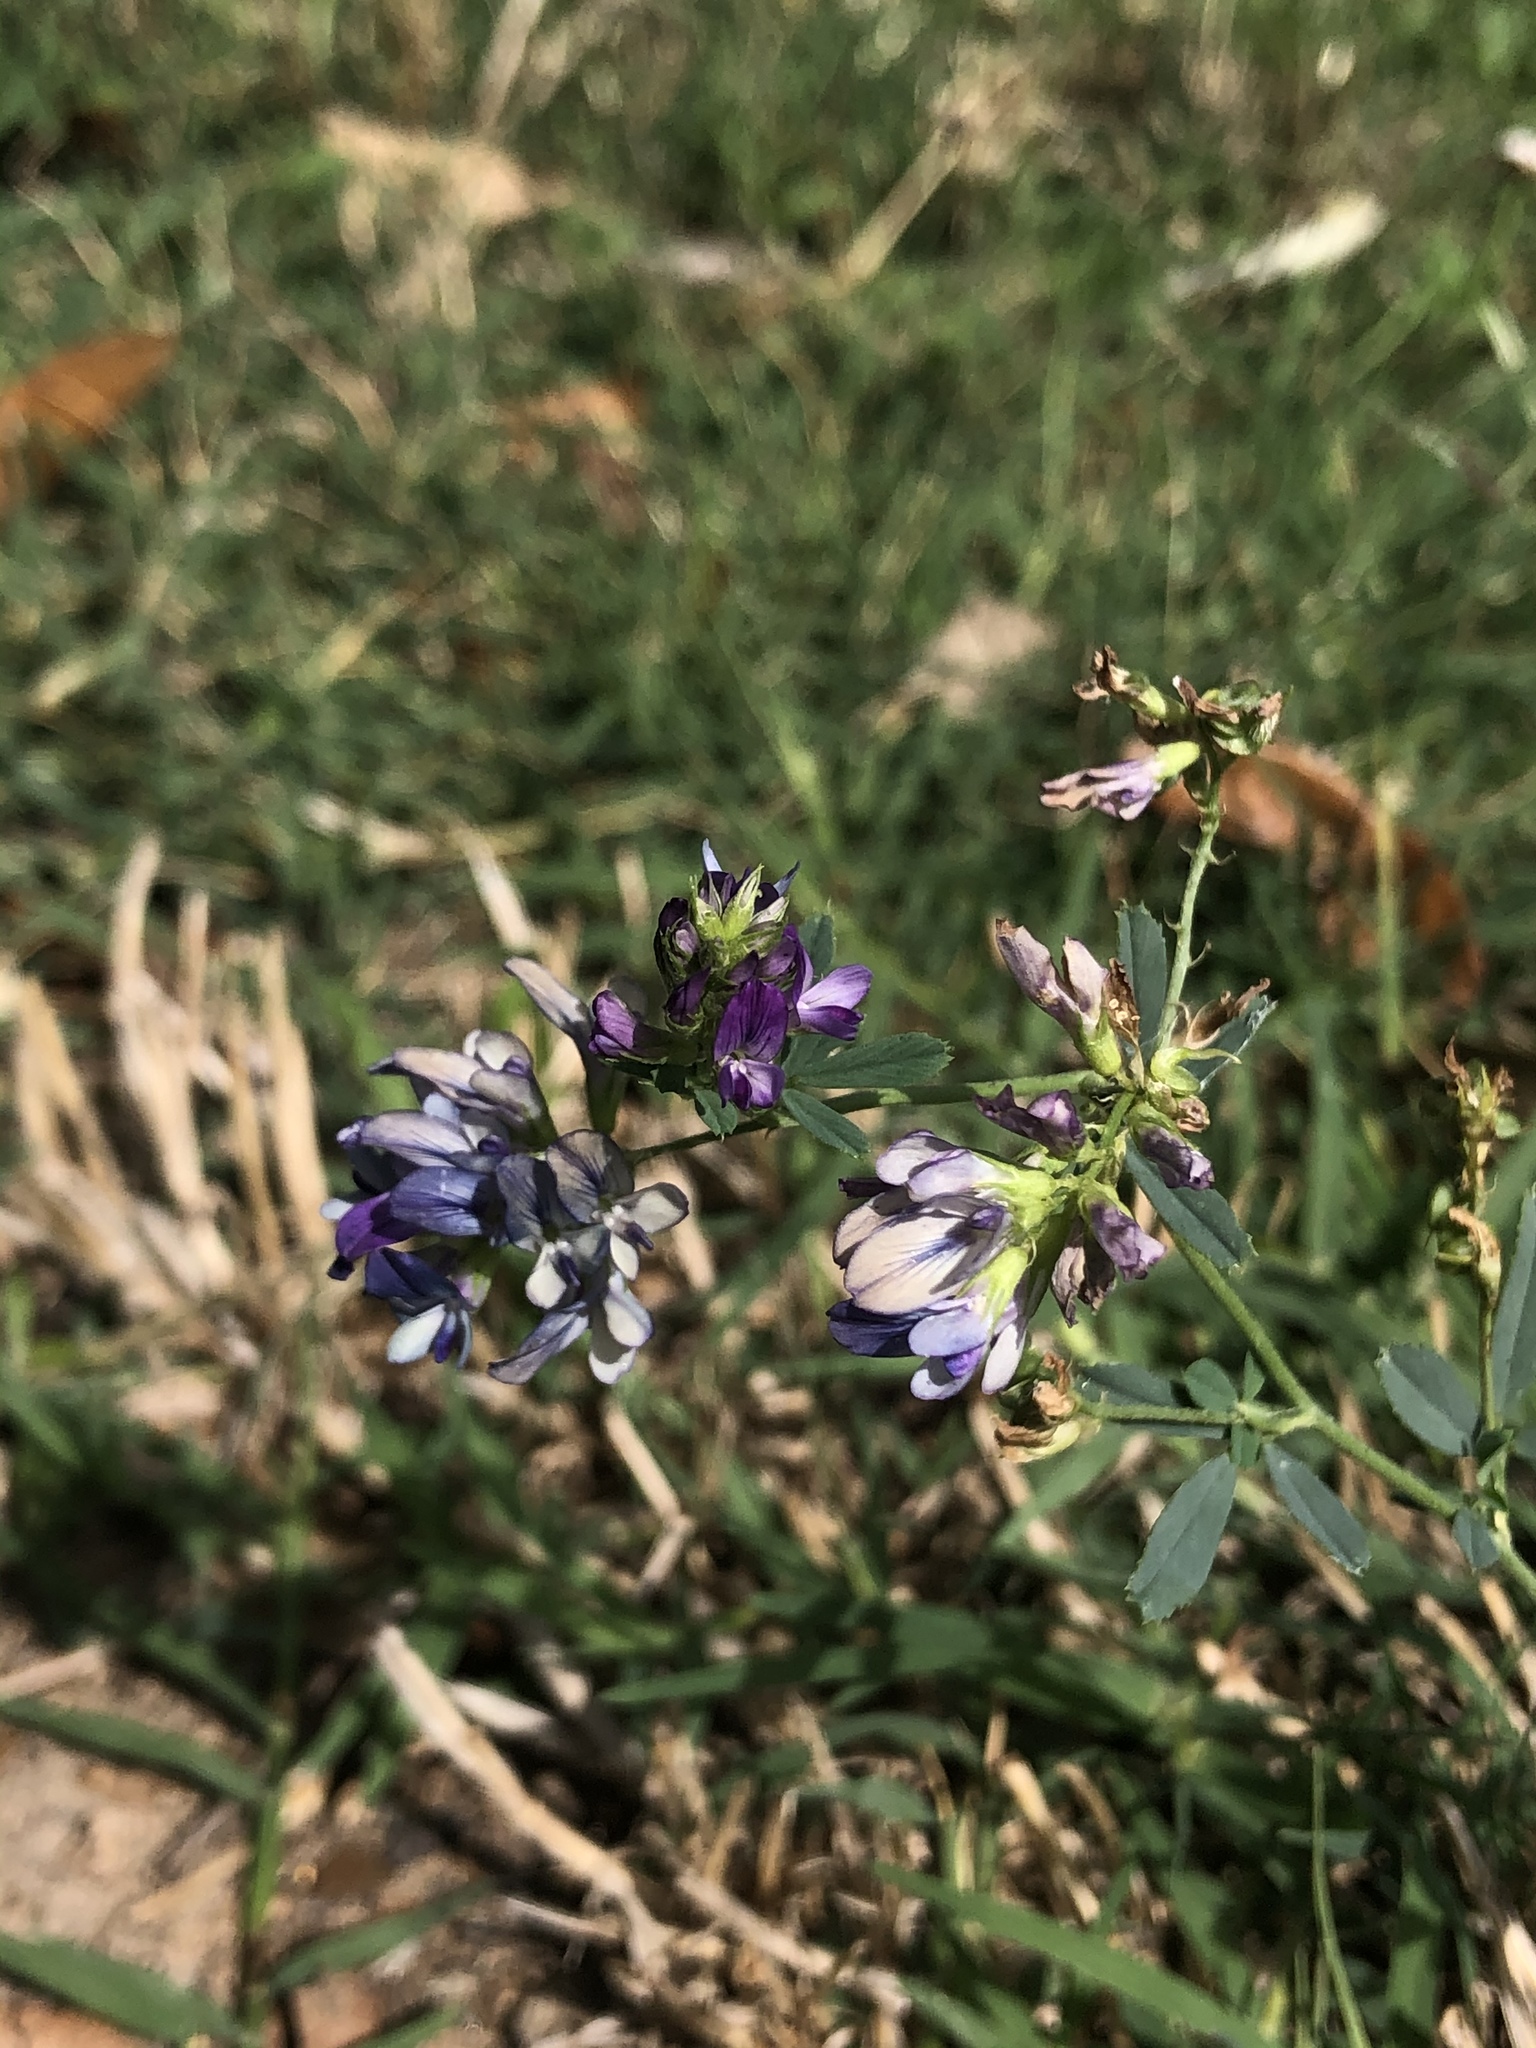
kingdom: Plantae
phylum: Tracheophyta
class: Magnoliopsida
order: Fabales
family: Fabaceae
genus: Medicago
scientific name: Medicago sativa
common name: Alfalfa
